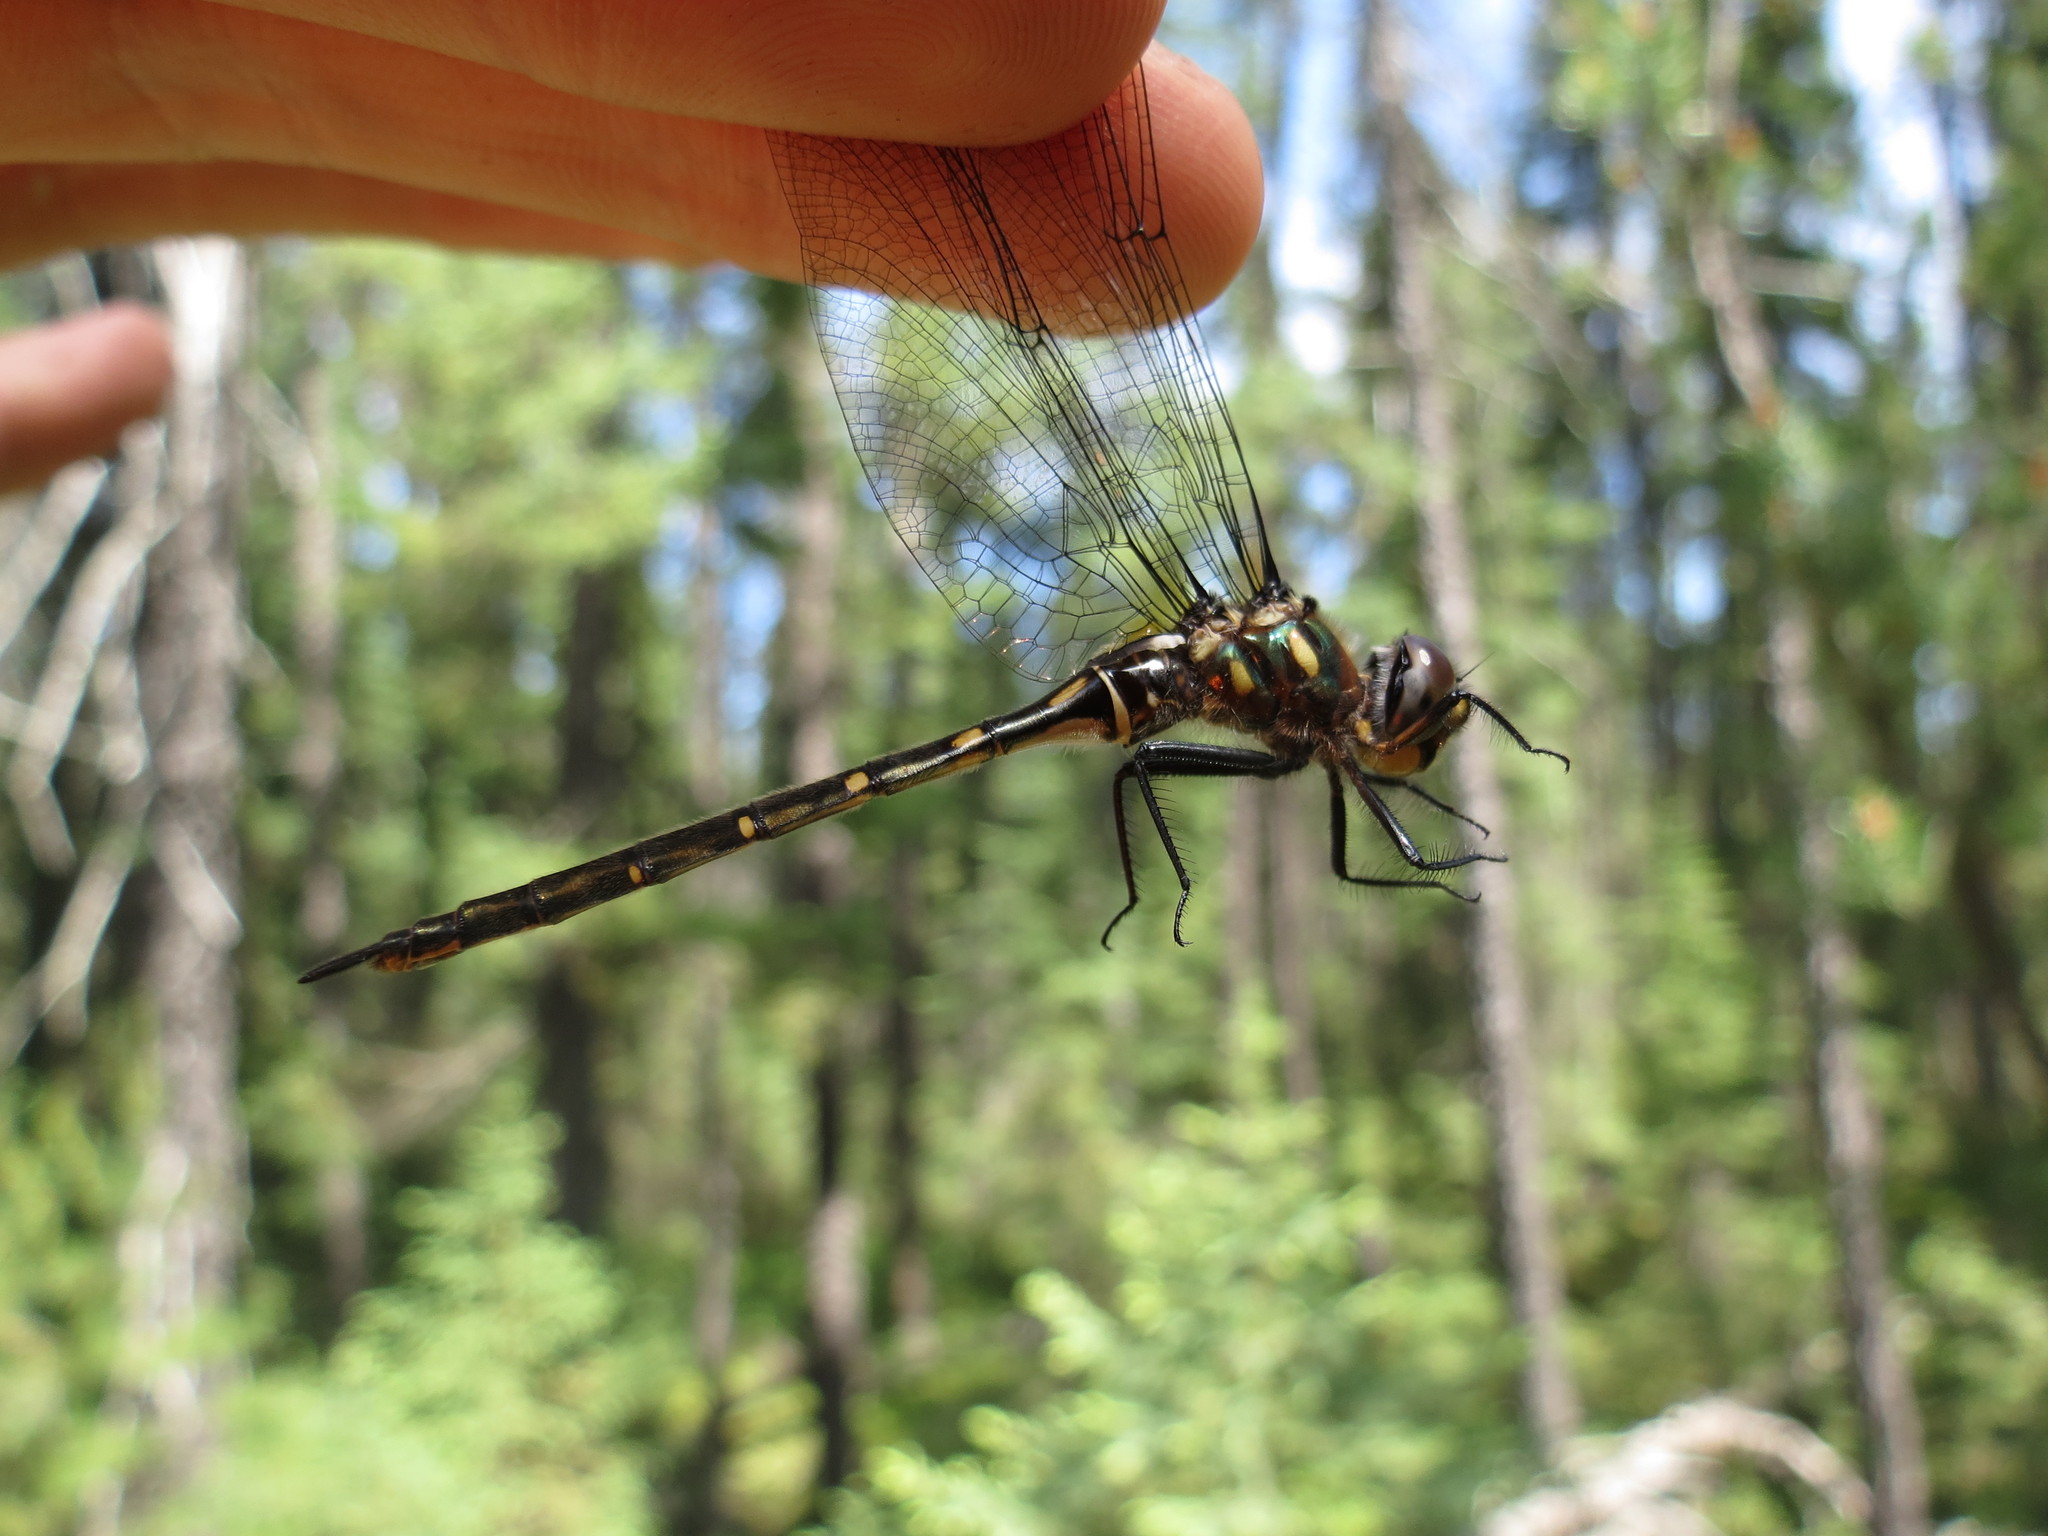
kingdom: Animalia
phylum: Arthropoda
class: Insecta
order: Odonata
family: Corduliidae
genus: Somatochlora
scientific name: Somatochlora forcipata
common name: Forcipate emerald
